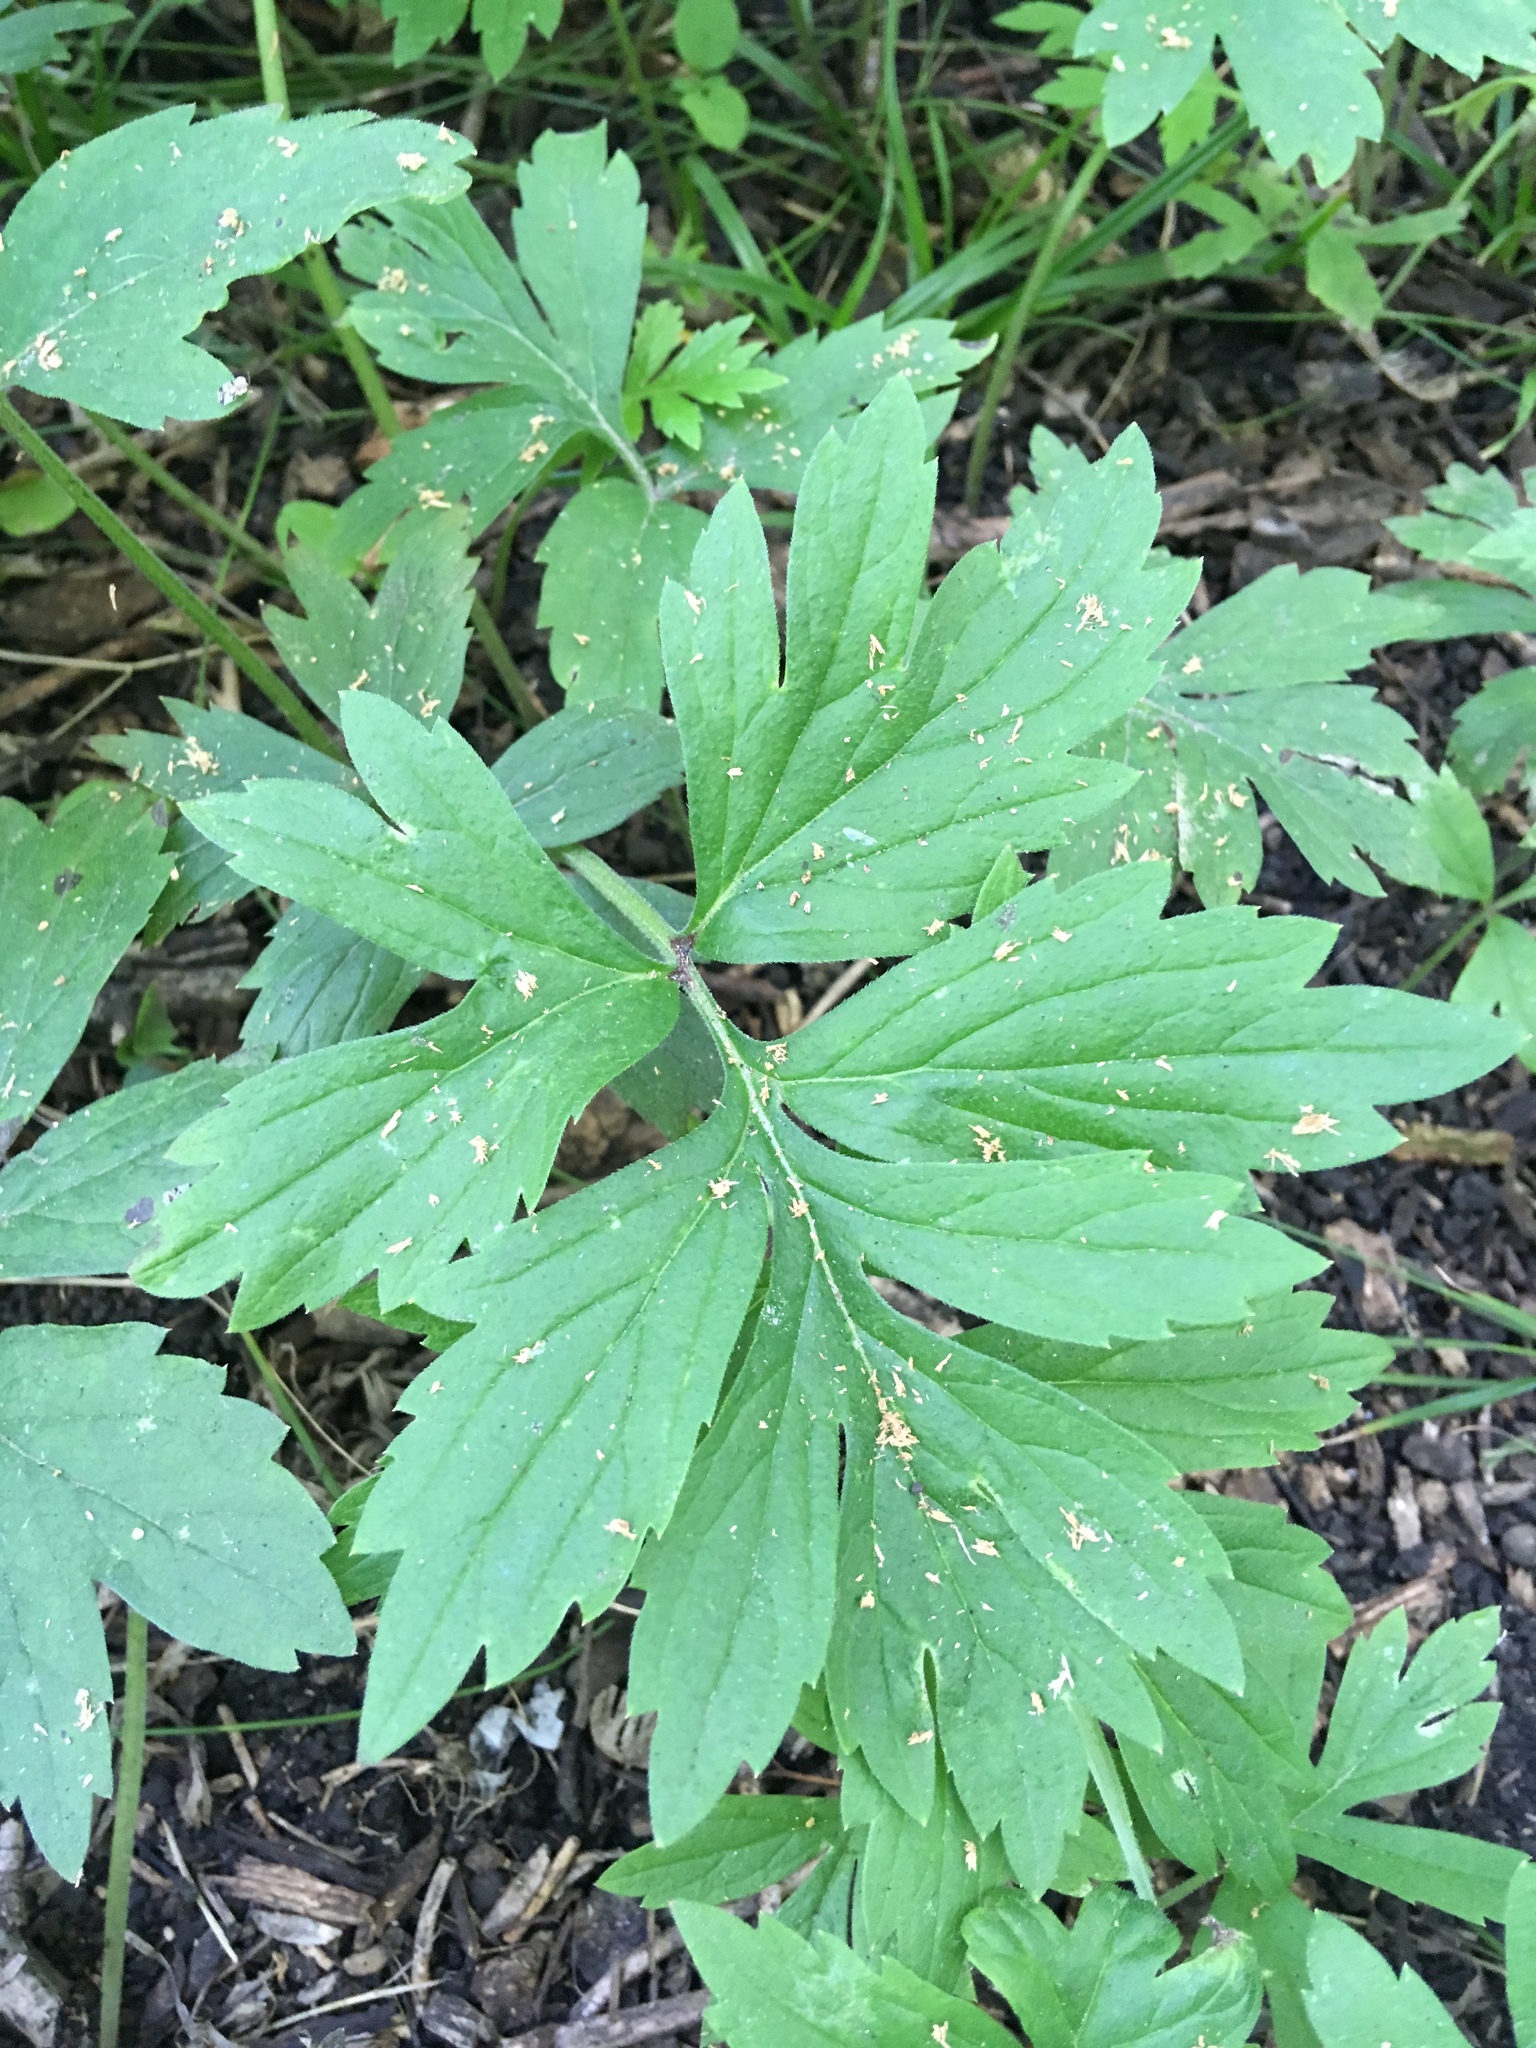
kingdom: Plantae
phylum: Tracheophyta
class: Magnoliopsida
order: Boraginales
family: Hydrophyllaceae
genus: Hydrophyllum
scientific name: Hydrophyllum virginianum
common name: Virginia waterleaf
